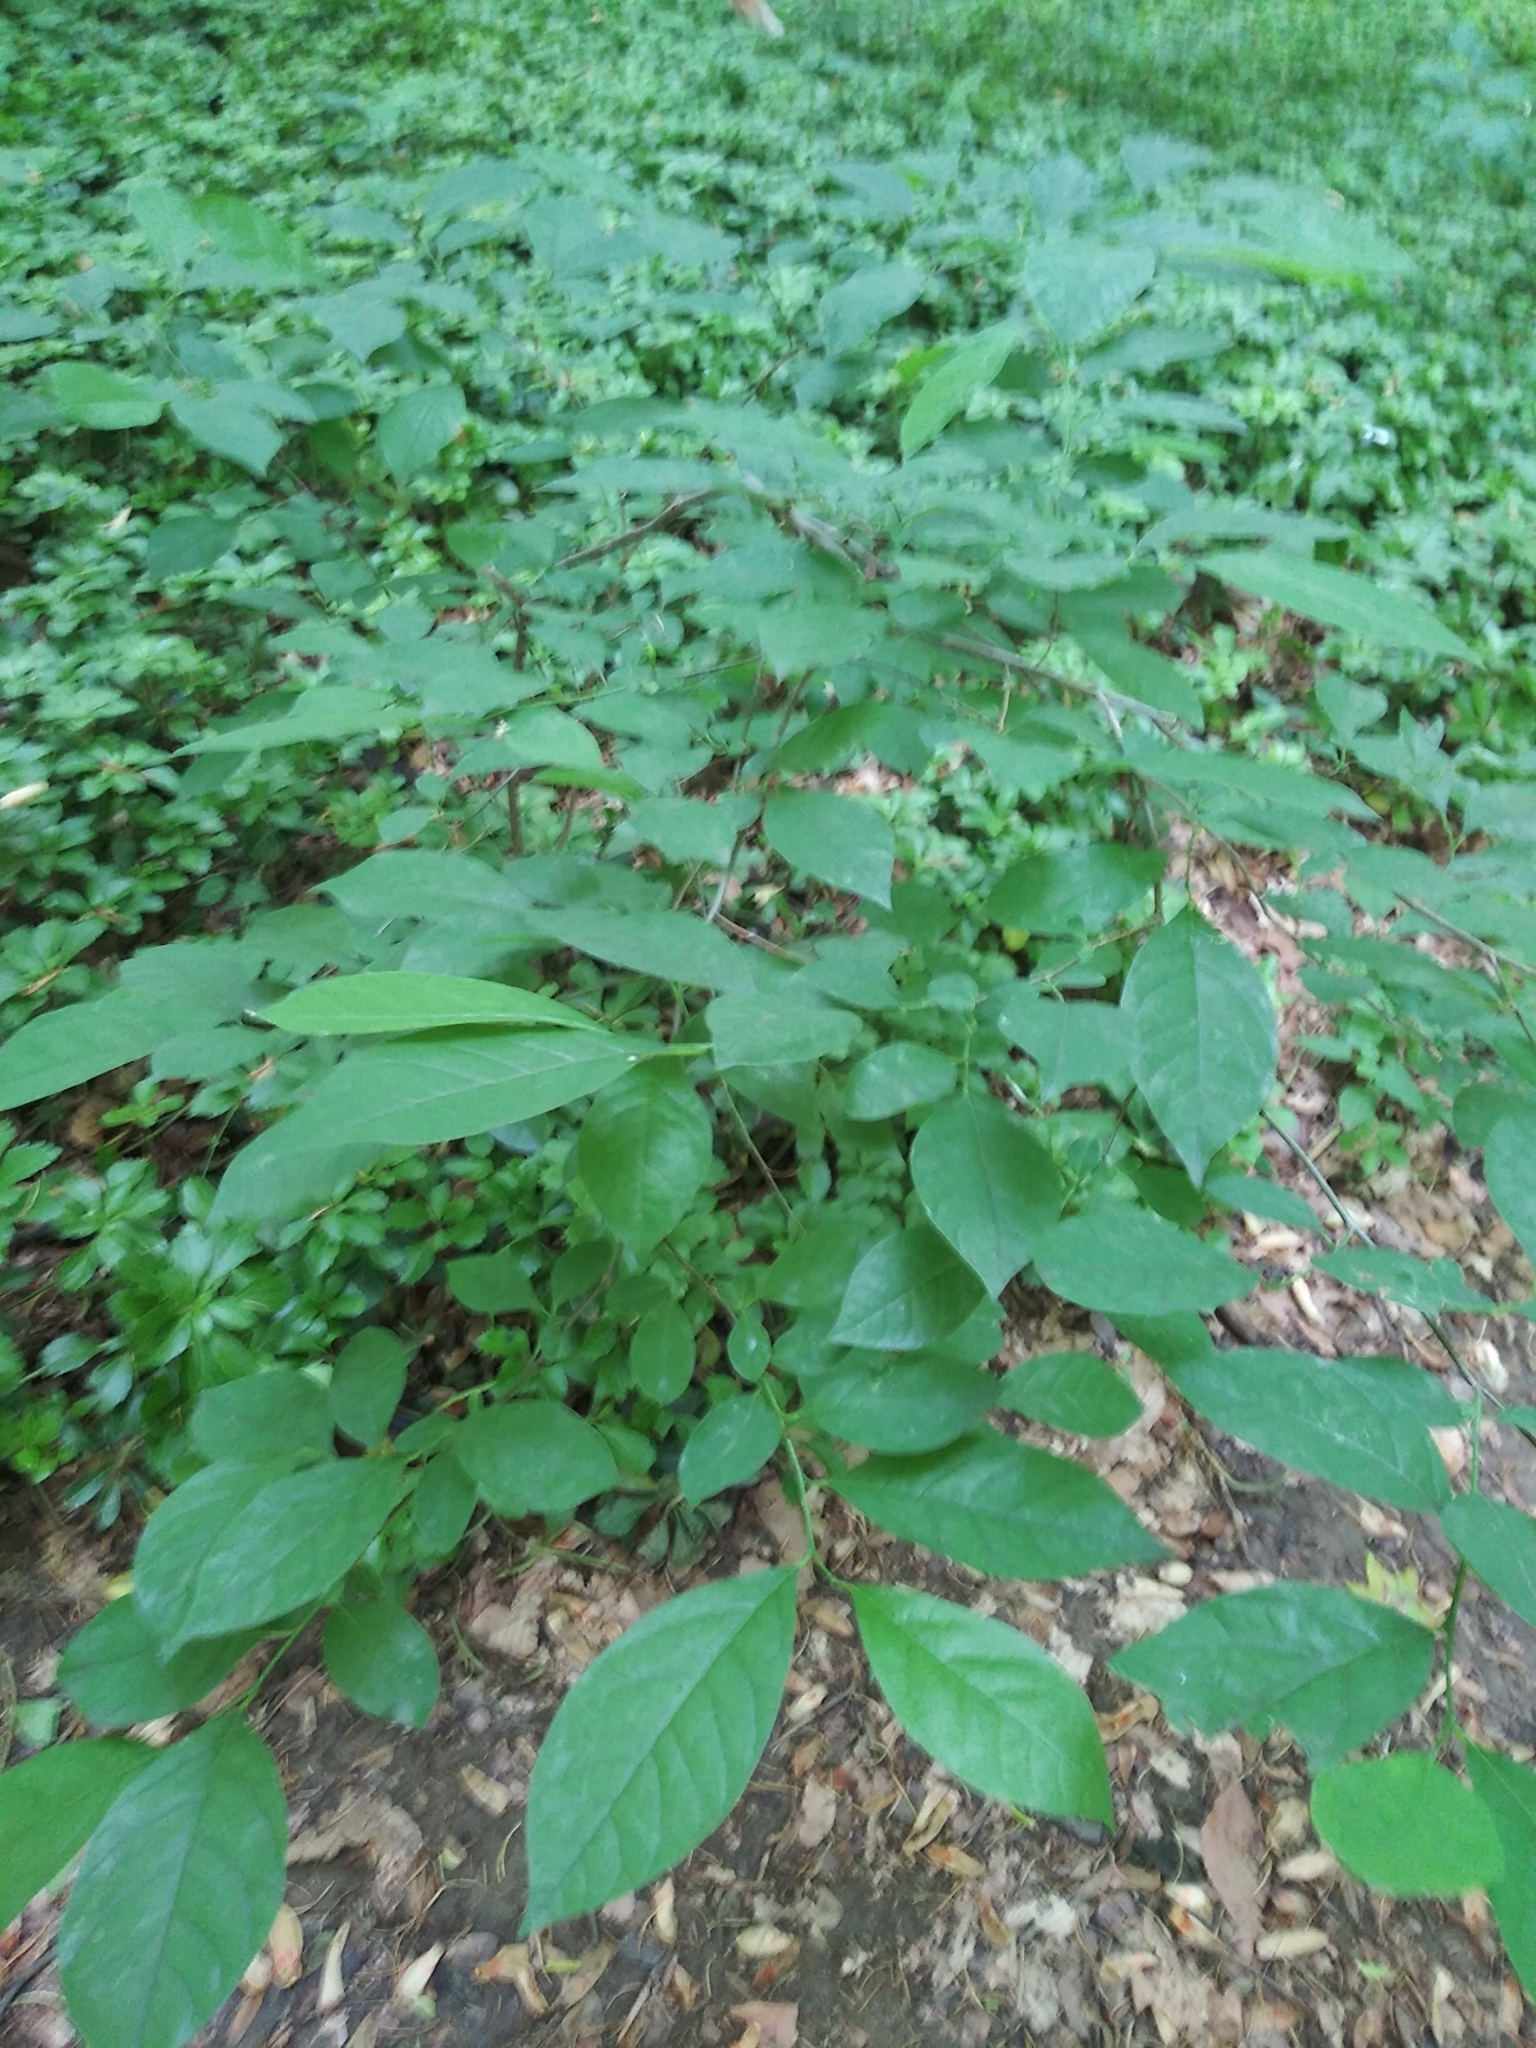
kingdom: Plantae
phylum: Tracheophyta
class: Magnoliopsida
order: Laurales
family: Lauraceae
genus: Lindera
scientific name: Lindera benzoin
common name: Spicebush
